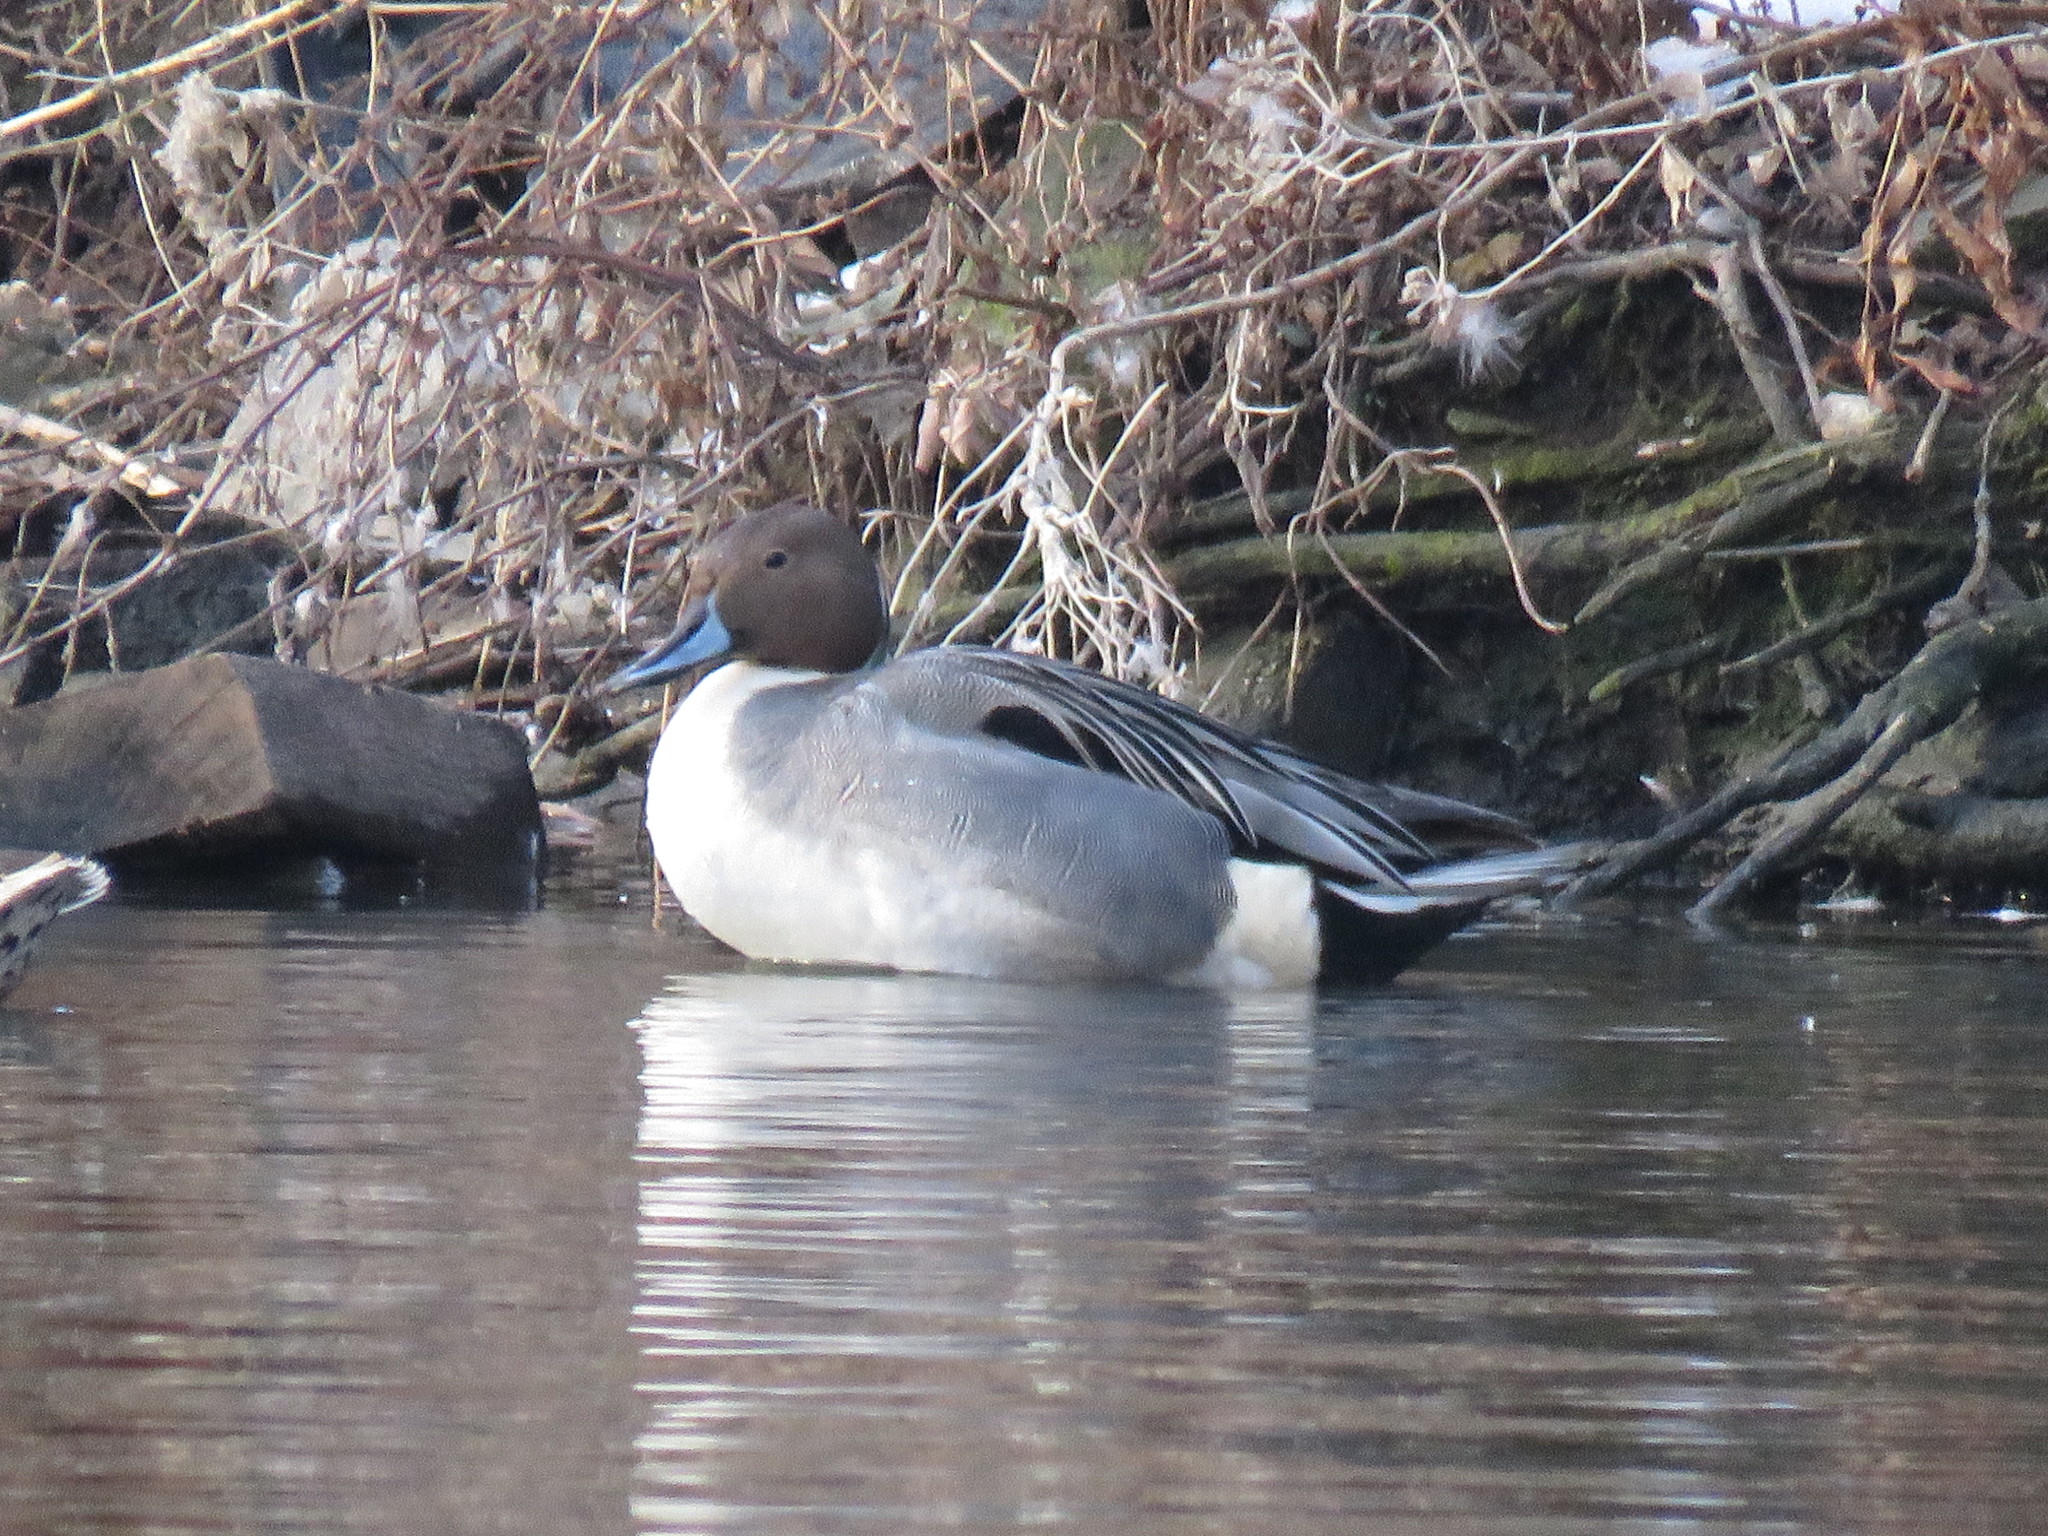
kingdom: Animalia
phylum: Chordata
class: Aves
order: Anseriformes
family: Anatidae
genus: Anas
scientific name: Anas acuta
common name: Northern pintail
